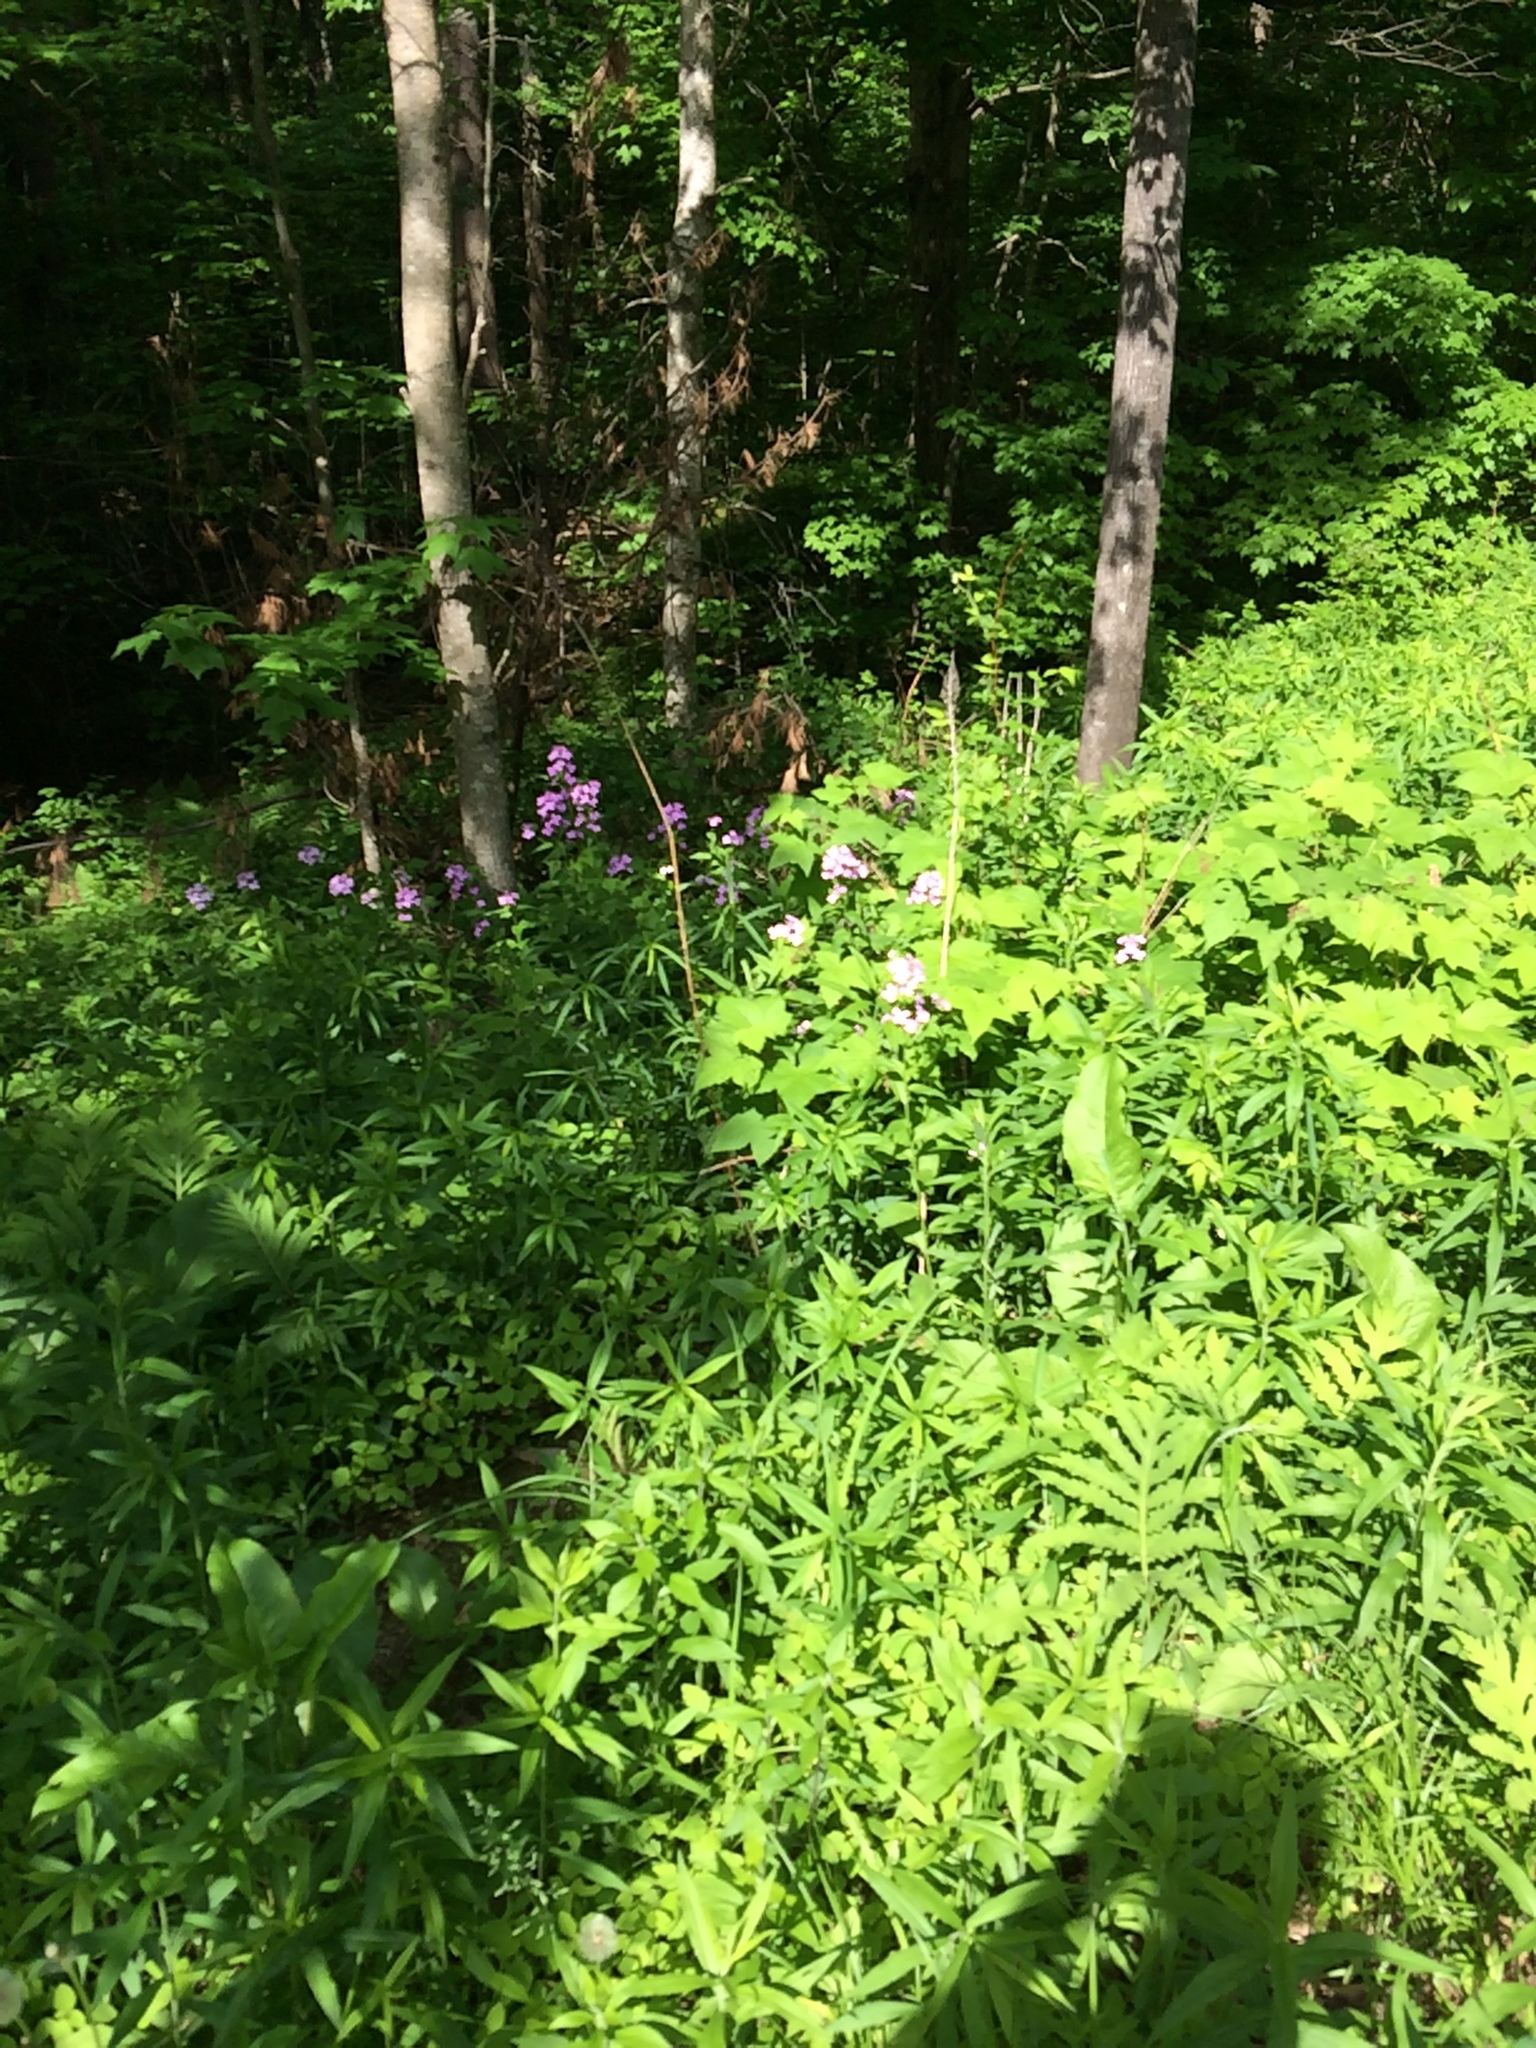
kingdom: Plantae
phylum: Tracheophyta
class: Magnoliopsida
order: Brassicales
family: Brassicaceae
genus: Hesperis
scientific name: Hesperis matronalis
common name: Dame's-violet
